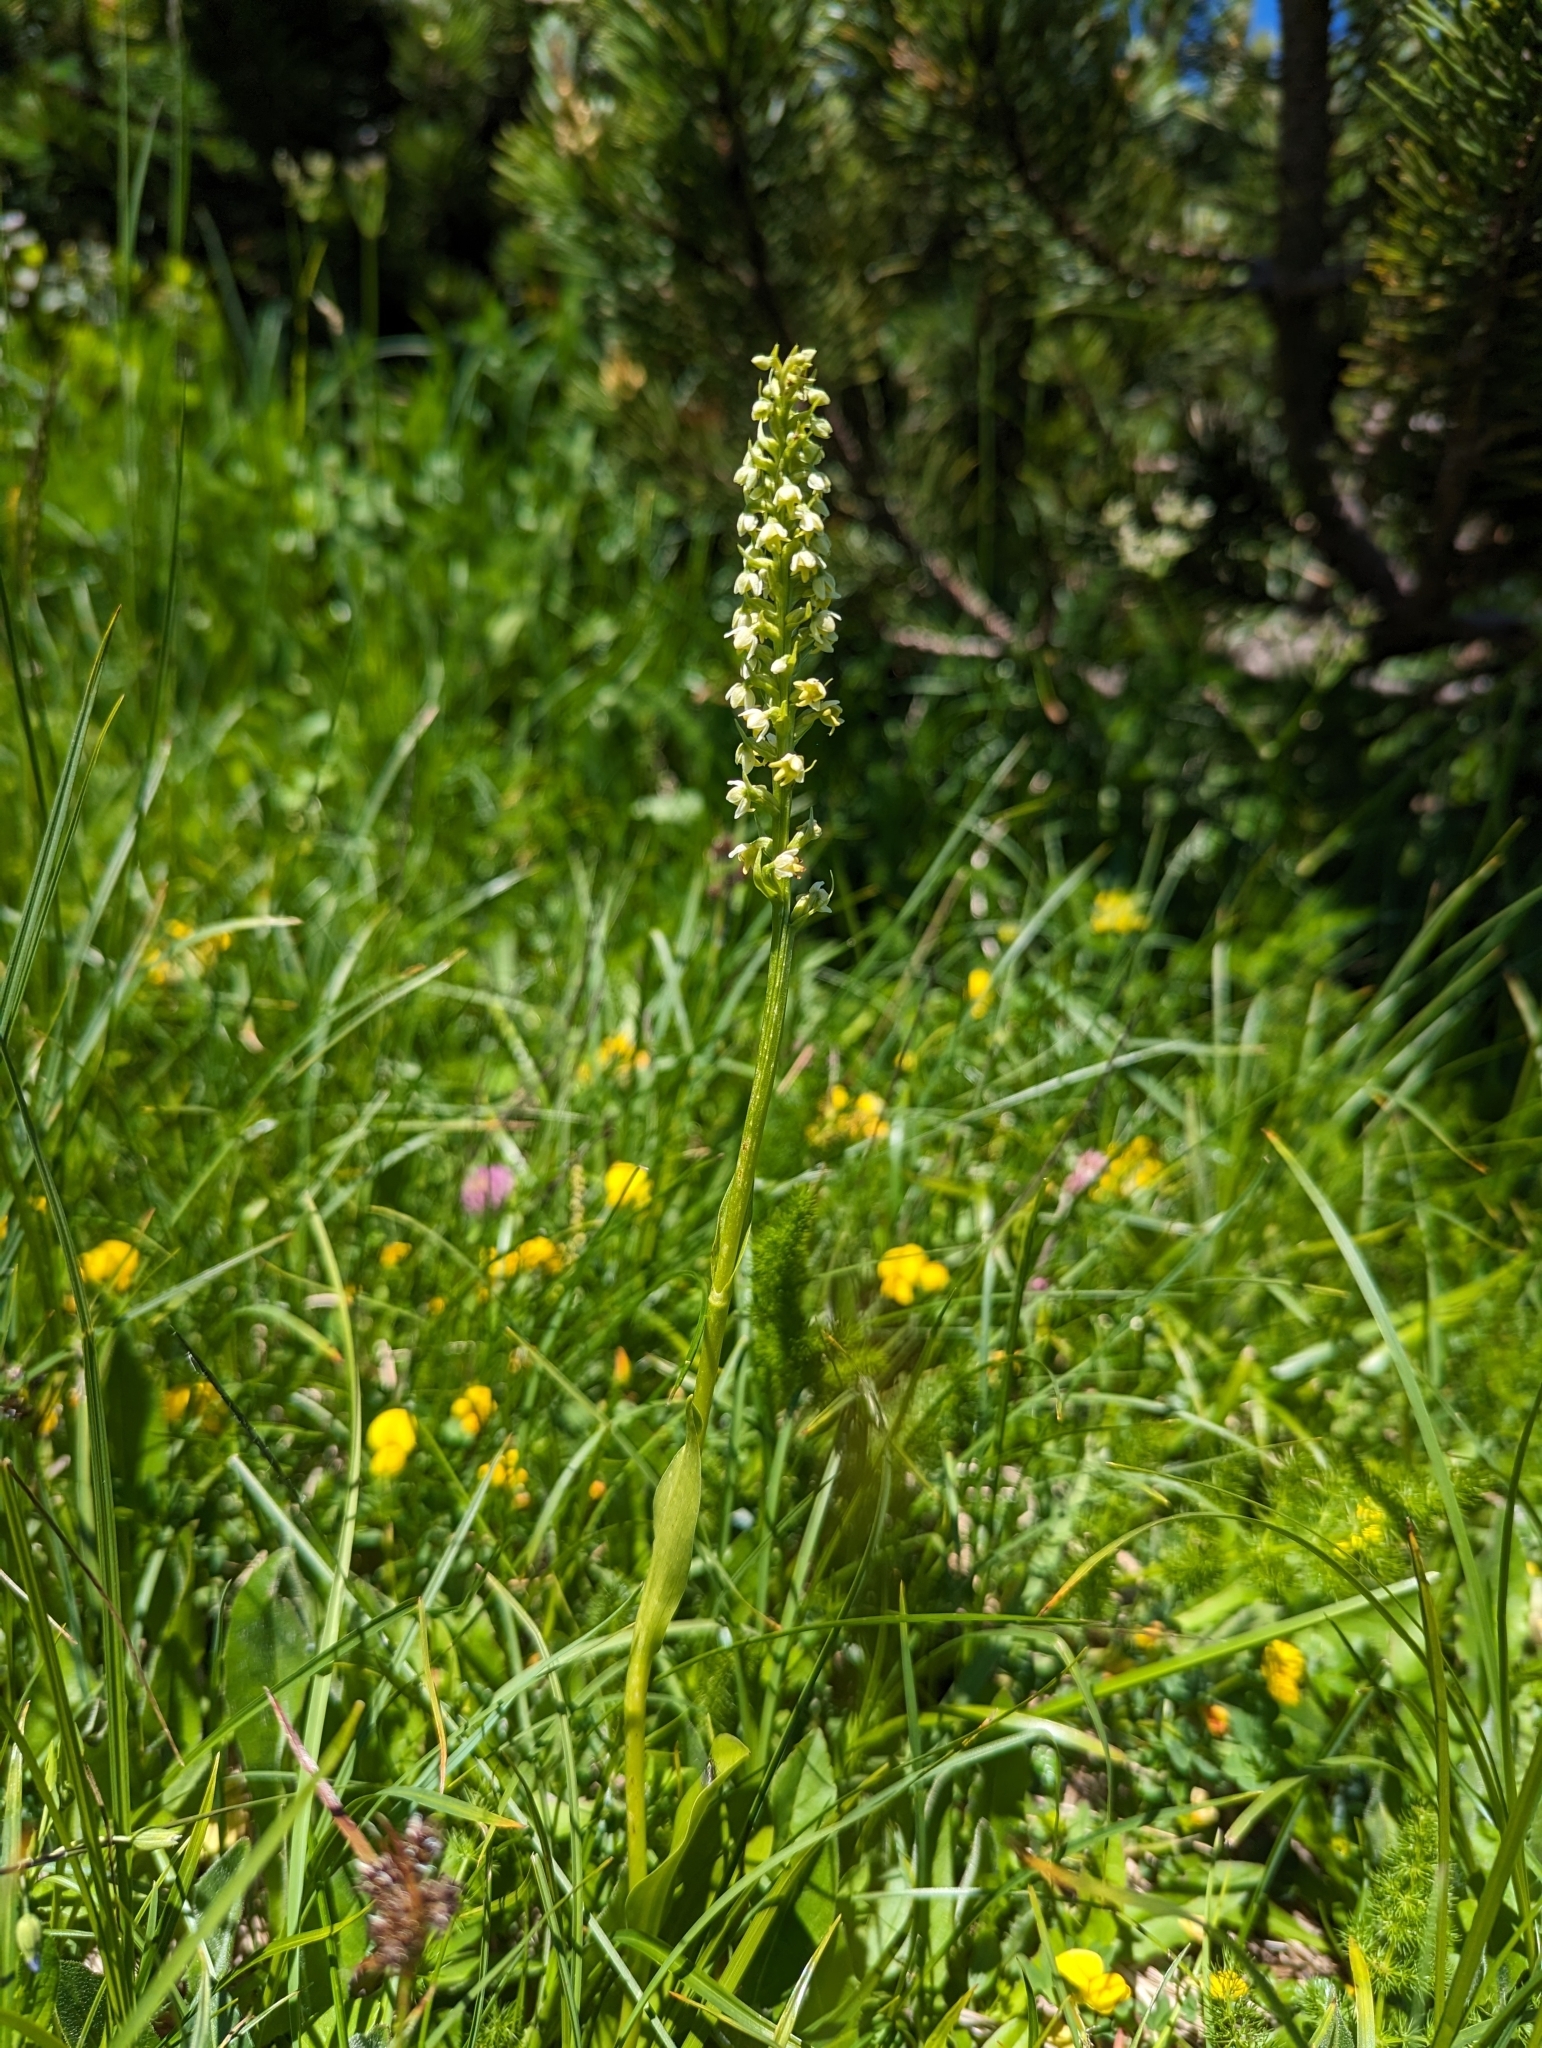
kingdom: Plantae
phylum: Tracheophyta
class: Liliopsida
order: Asparagales
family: Orchidaceae
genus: Pseudorchis
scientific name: Pseudorchis albida
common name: Small-white orchid
